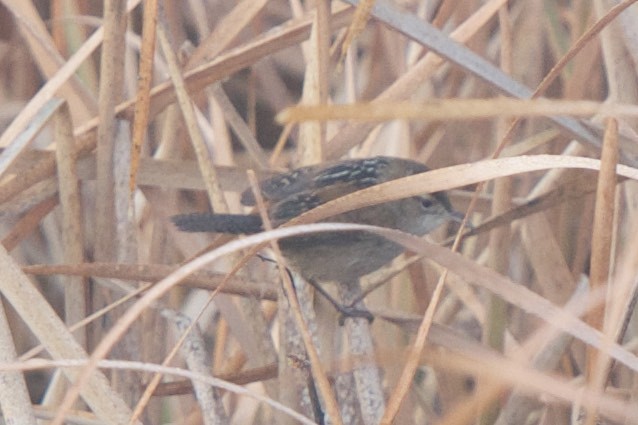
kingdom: Animalia
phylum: Chordata
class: Aves
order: Passeriformes
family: Troglodytidae
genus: Cistothorus
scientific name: Cistothorus palustris
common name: Marsh wren
